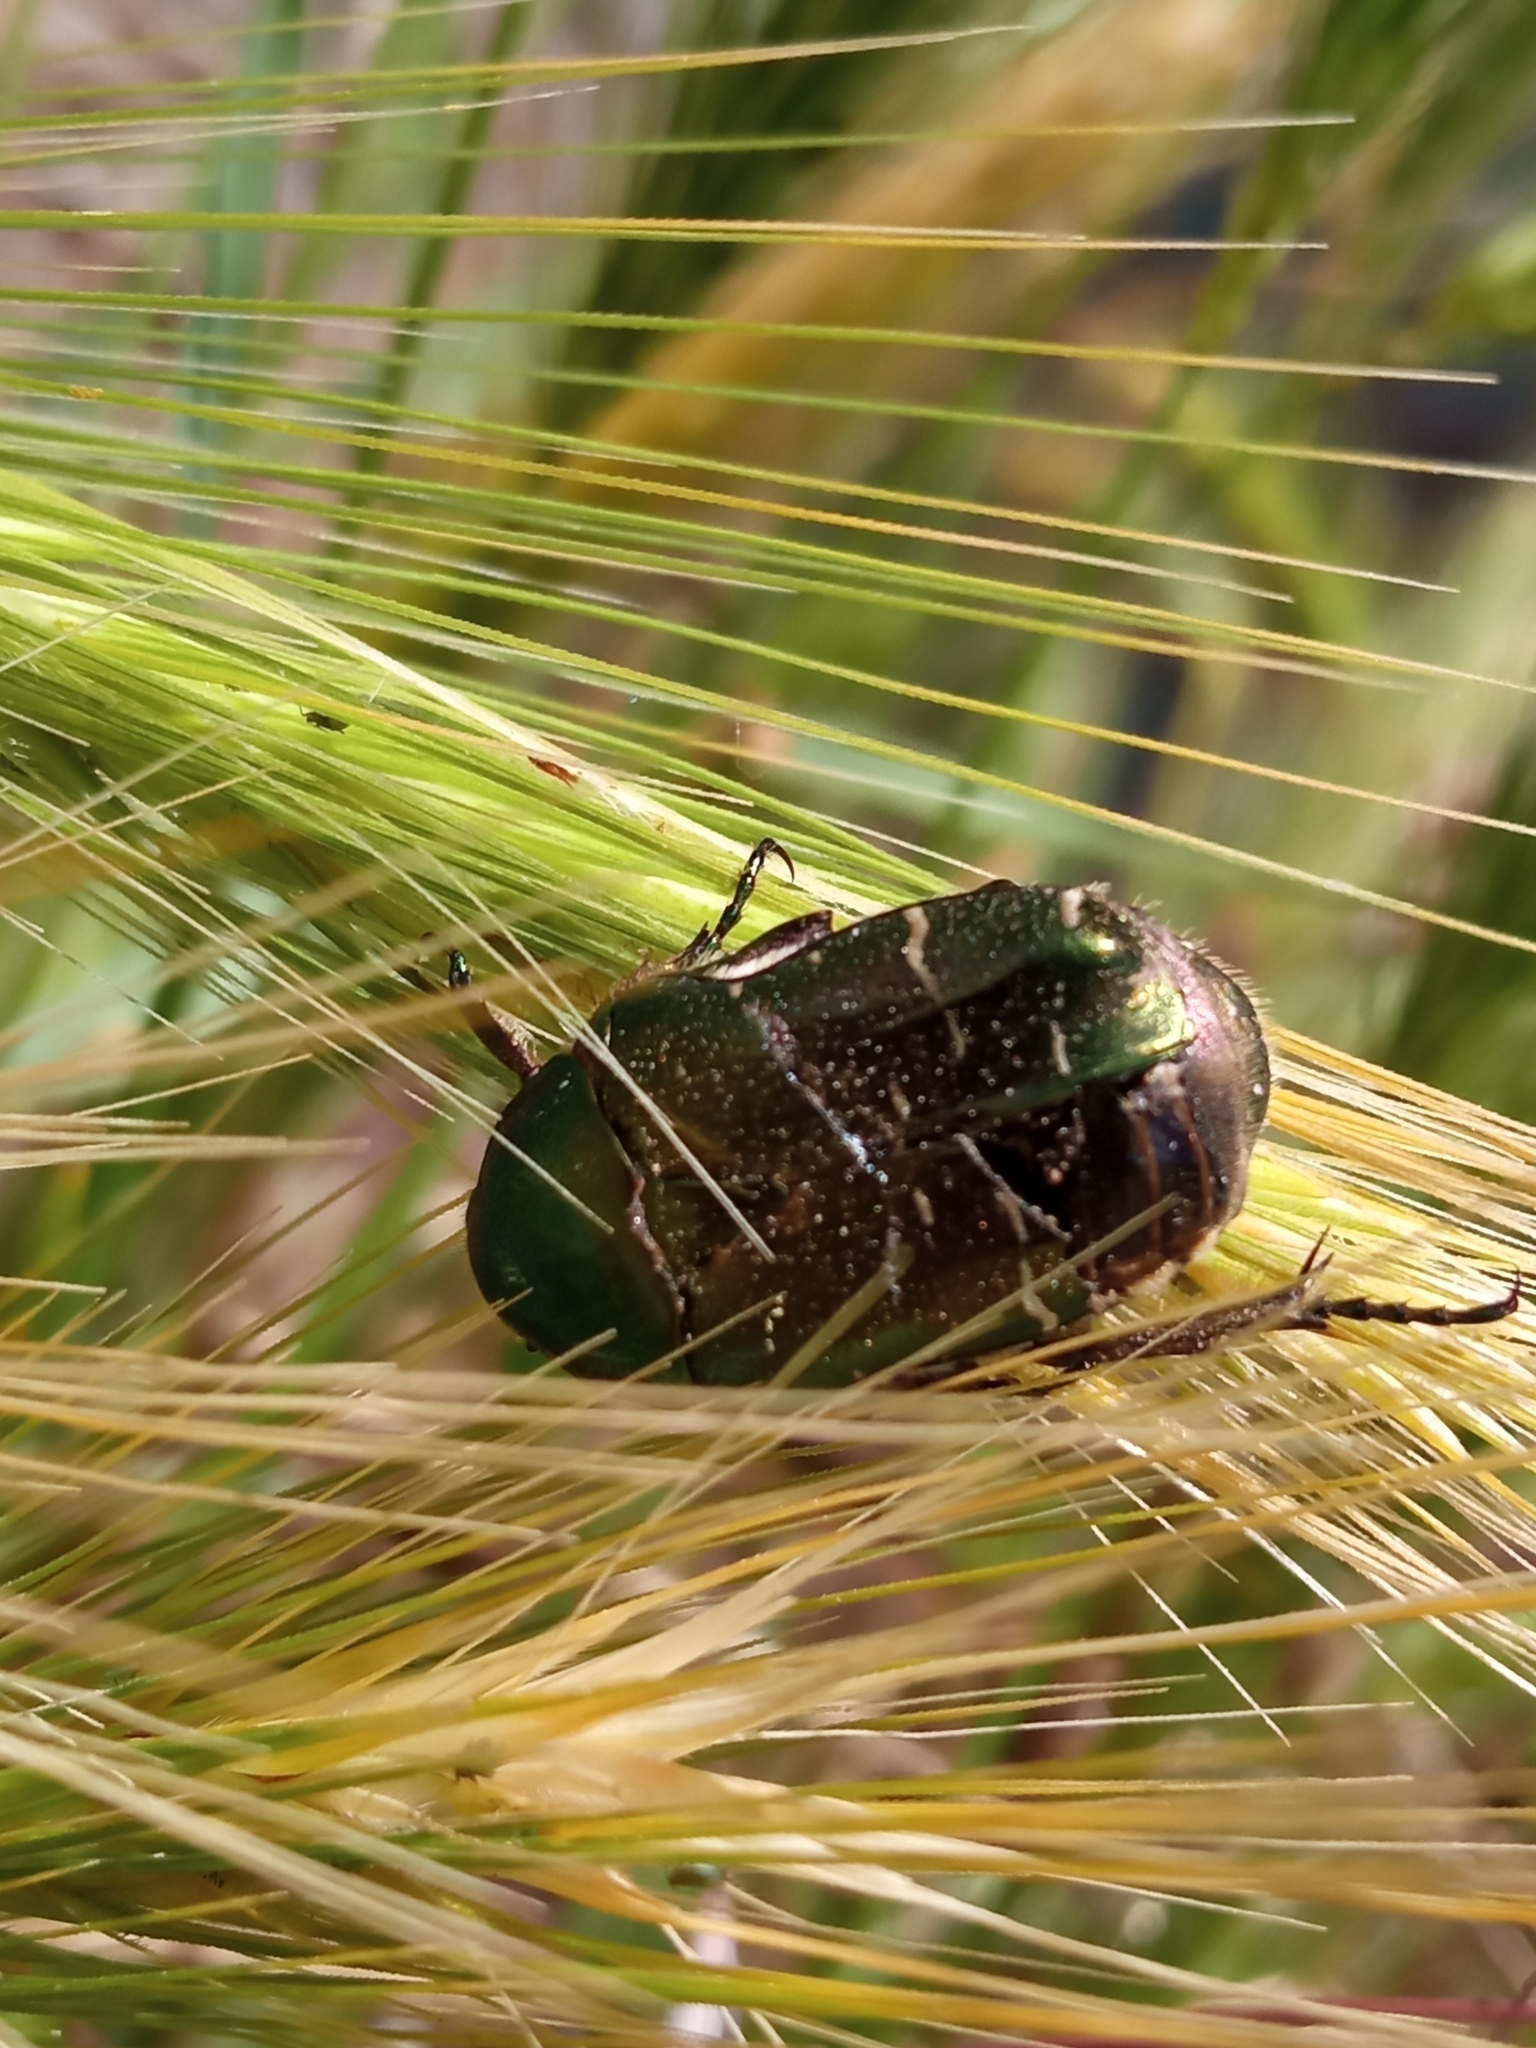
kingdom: Animalia
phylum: Arthropoda
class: Insecta
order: Coleoptera
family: Scarabaeidae
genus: Cetonia
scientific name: Cetonia aurata
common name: Rose chafer
